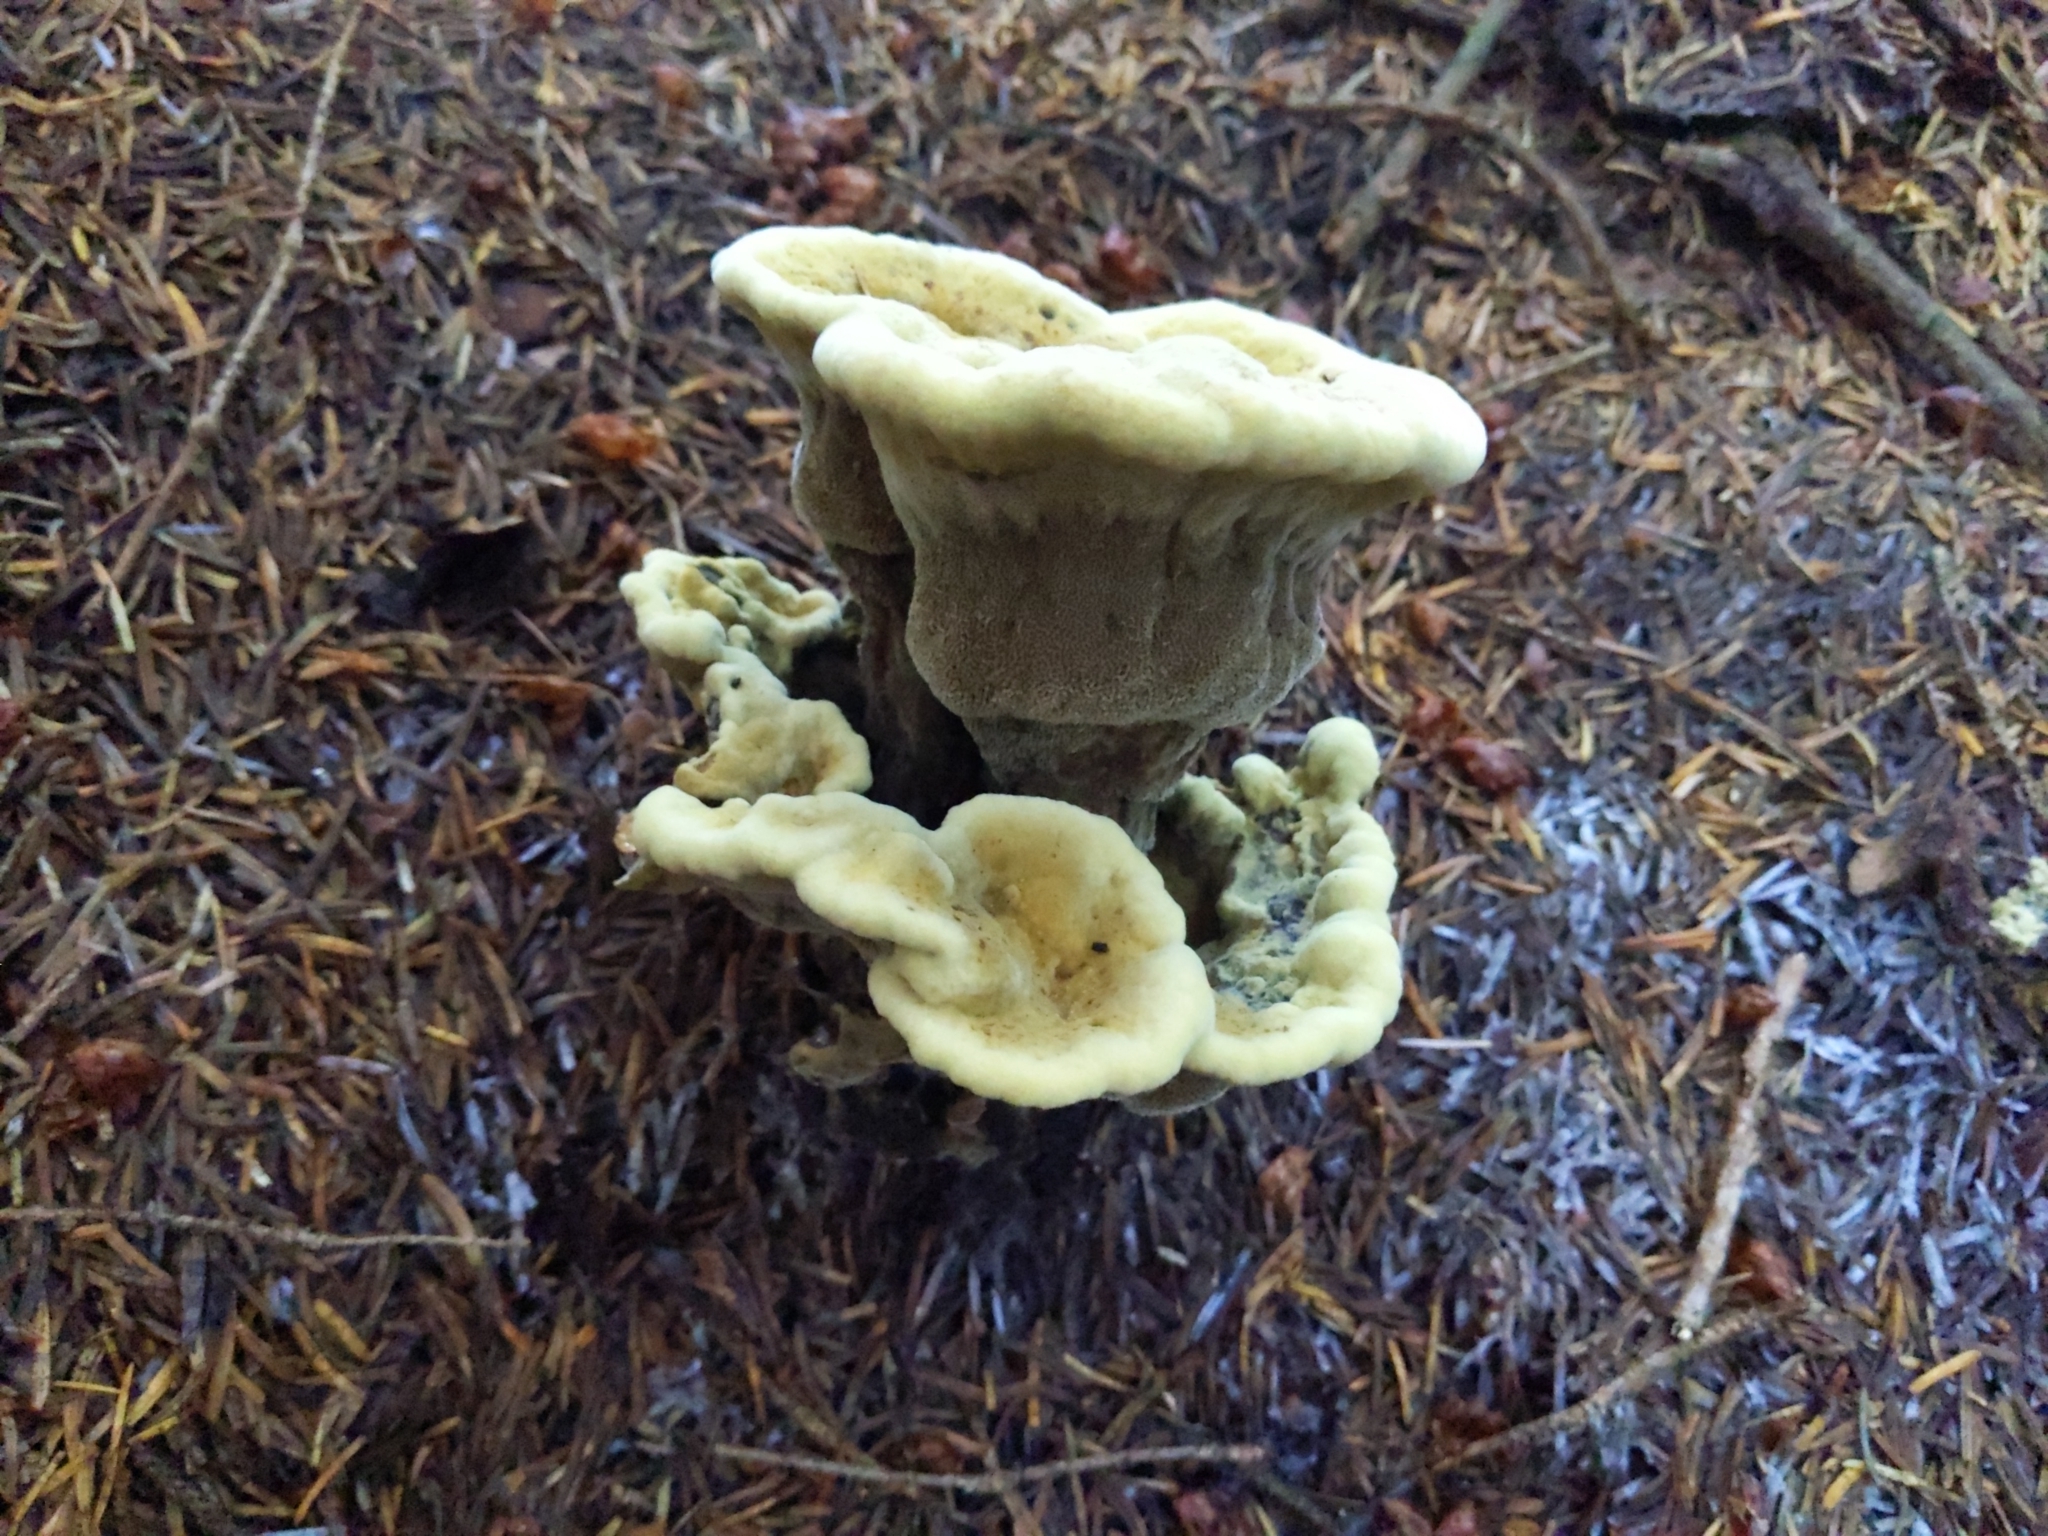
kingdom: Fungi
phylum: Basidiomycota
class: Agaricomycetes
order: Polyporales
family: Laetiporaceae
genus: Phaeolus
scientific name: Phaeolus schweinitzii
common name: Dyer's mazegill
